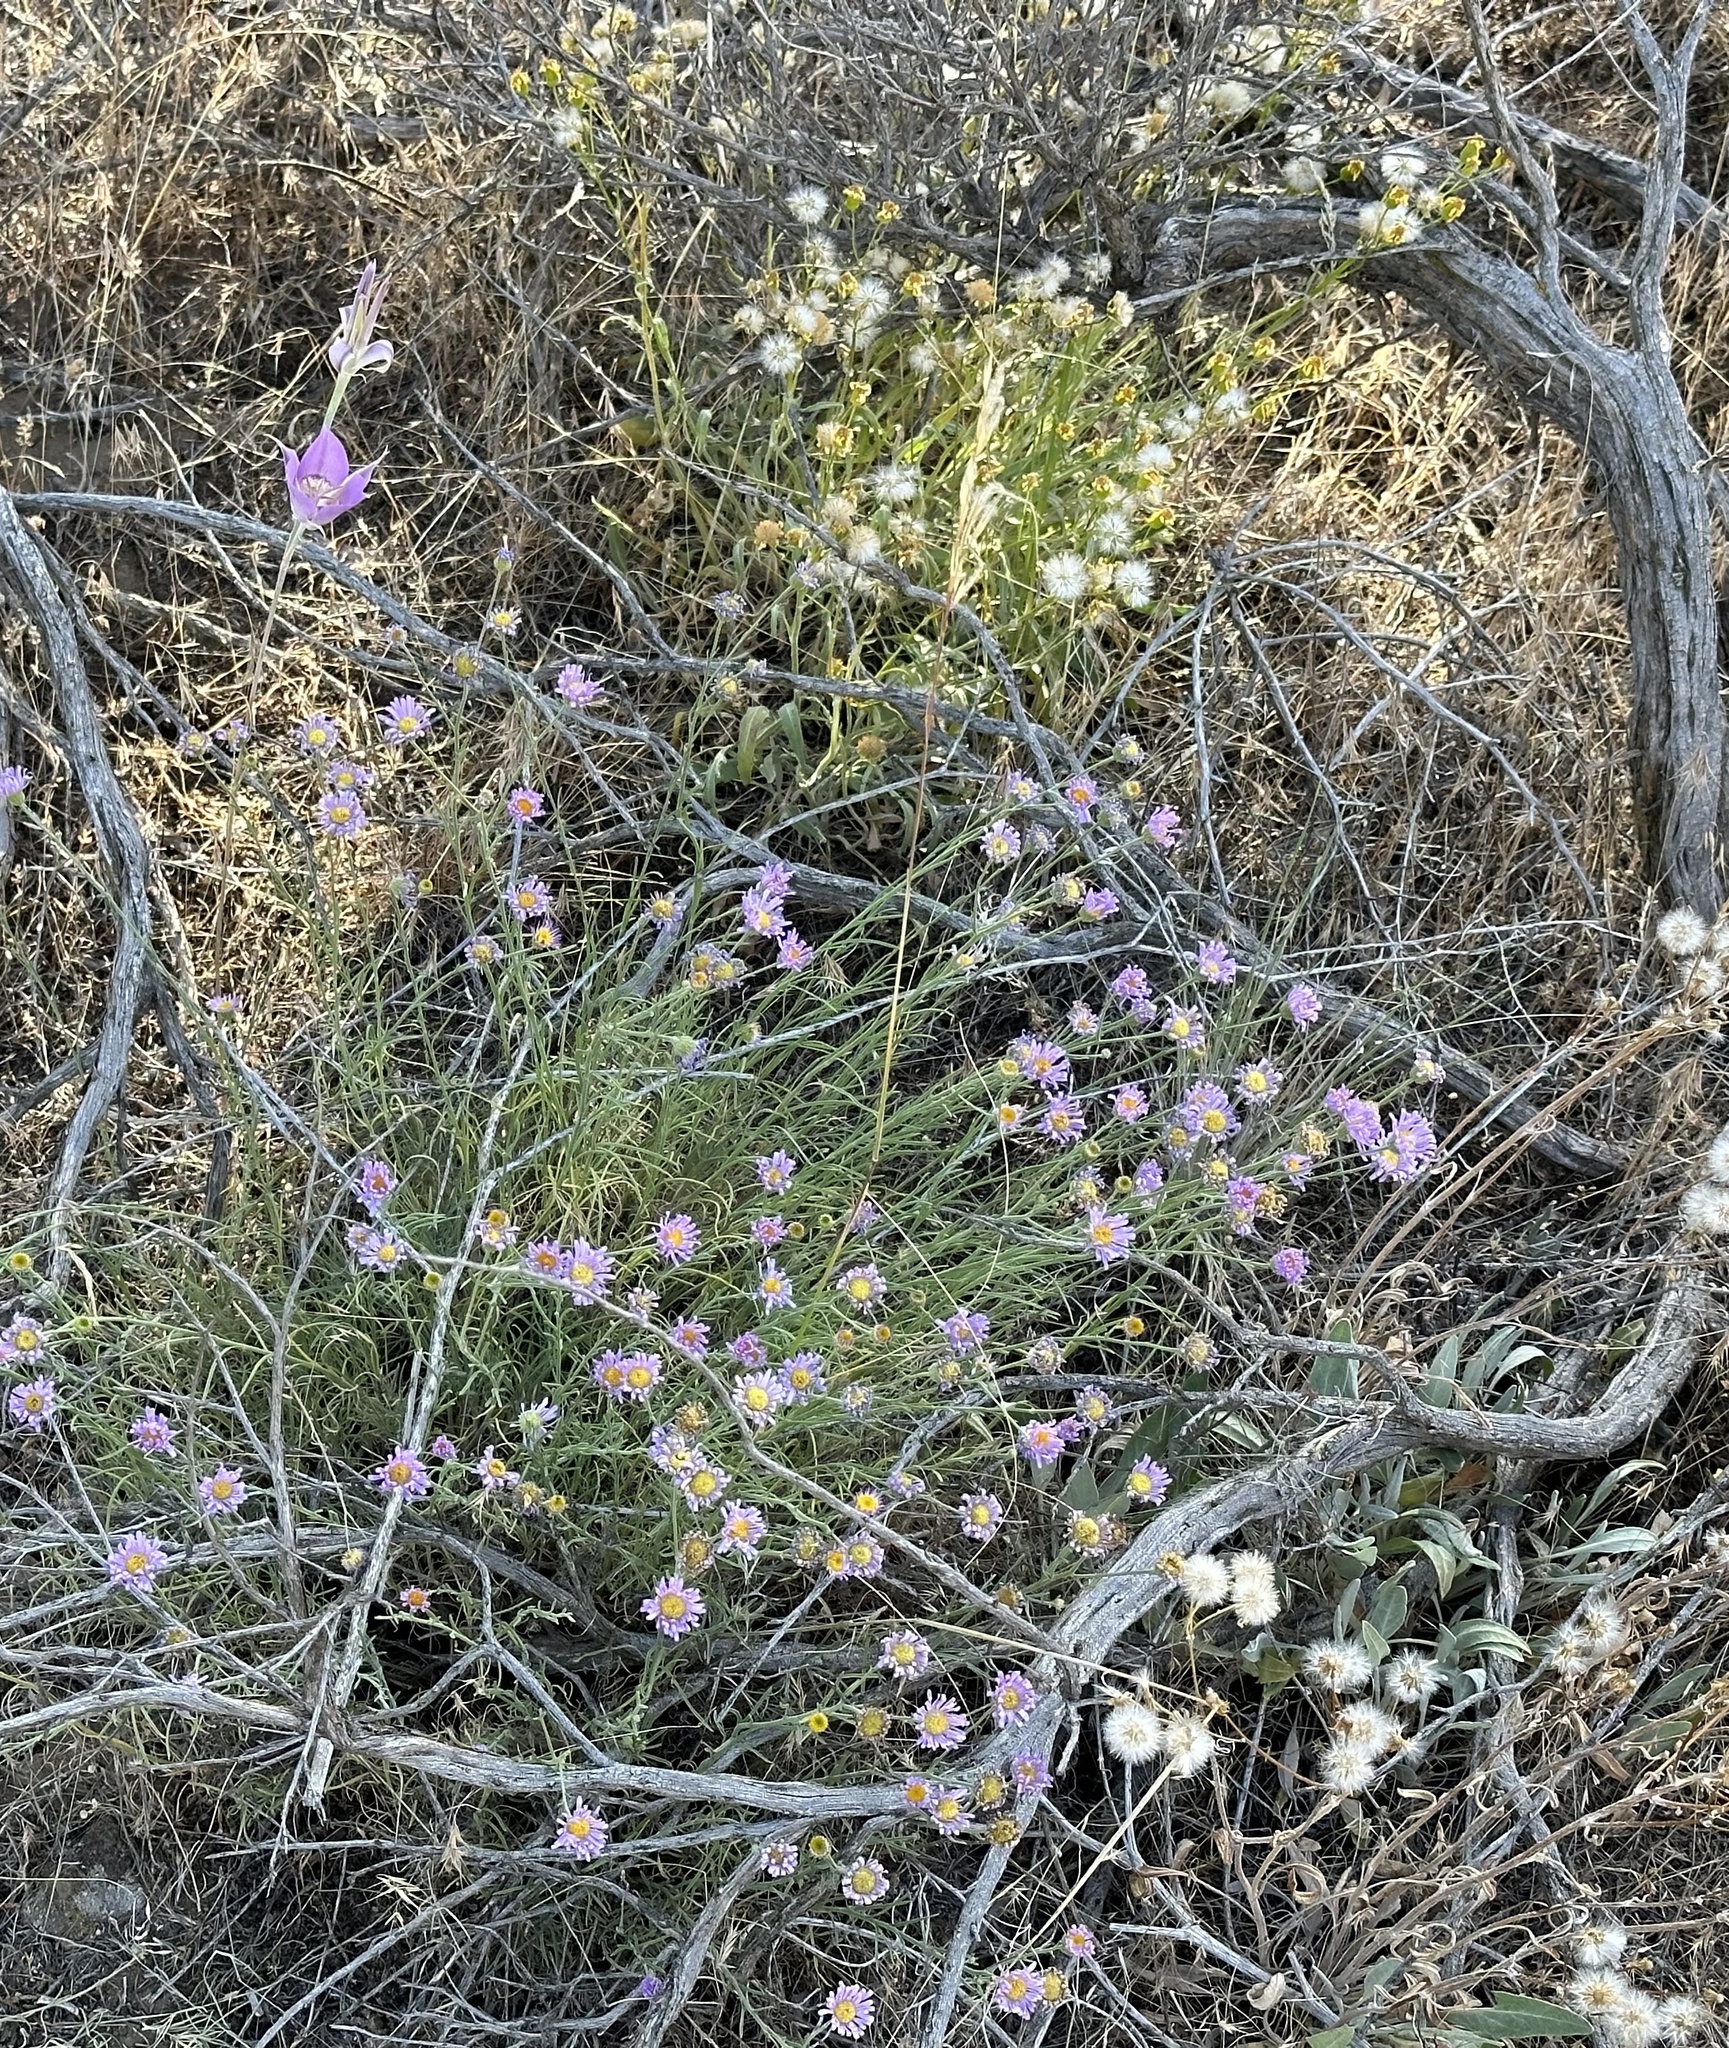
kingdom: Plantae
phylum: Tracheophyta
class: Liliopsida
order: Liliales
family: Liliaceae
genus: Calochortus
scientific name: Calochortus macrocarpus
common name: Green-band mariposa lily
